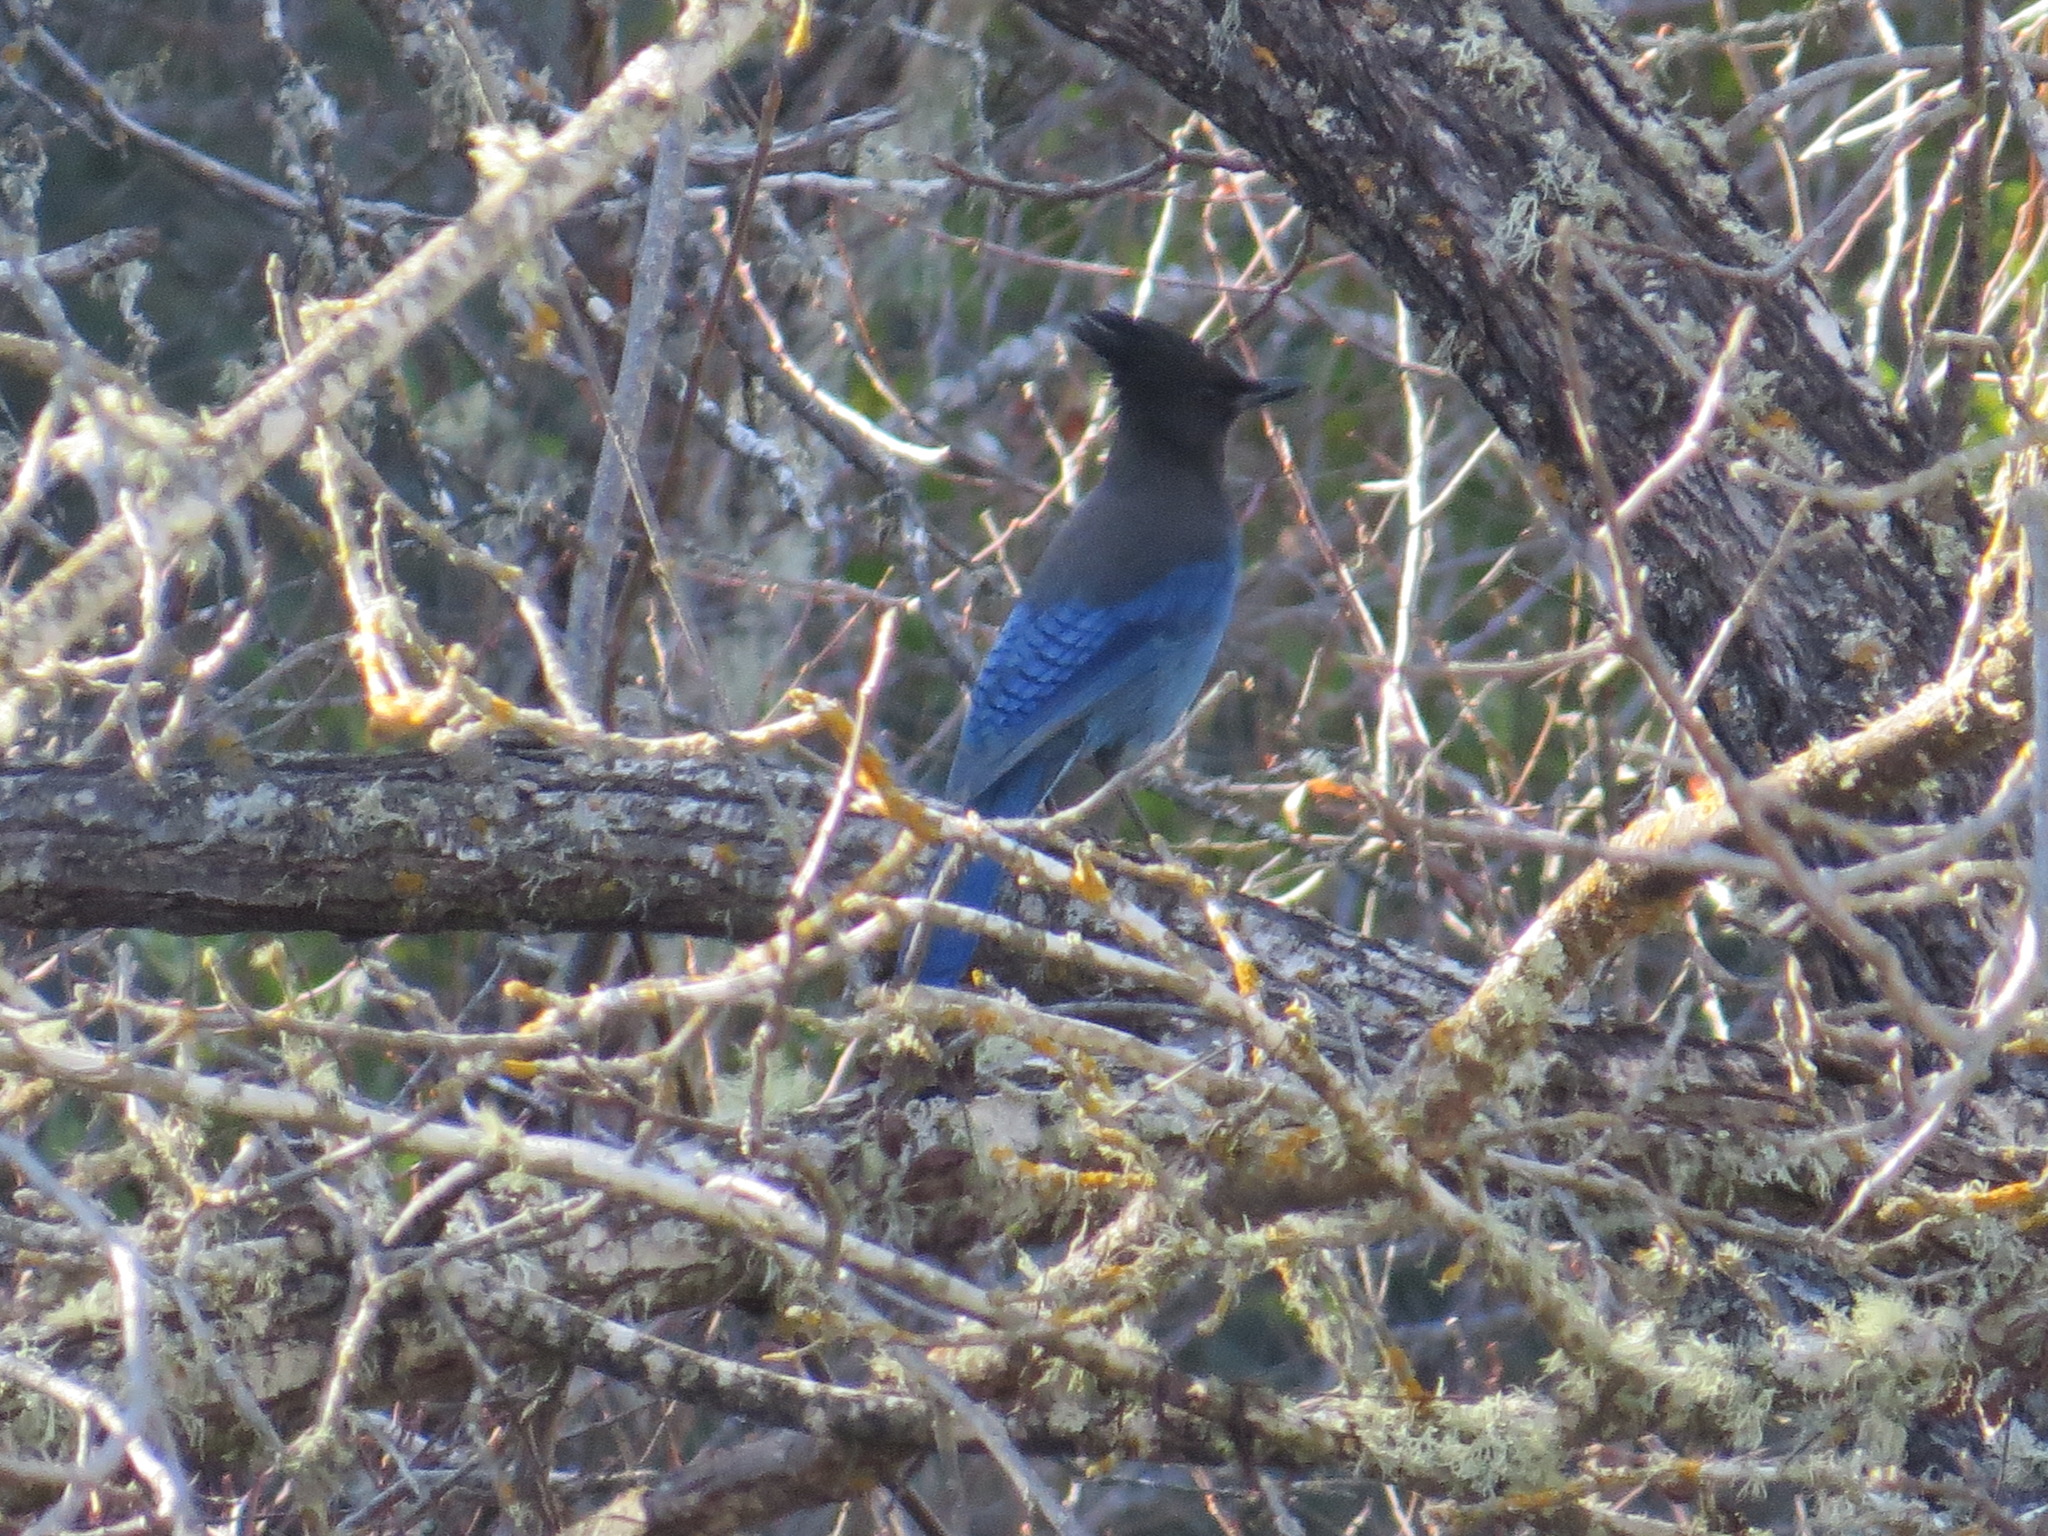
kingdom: Animalia
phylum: Chordata
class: Aves
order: Passeriformes
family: Corvidae
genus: Cyanocitta
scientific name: Cyanocitta stelleri
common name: Steller's jay
